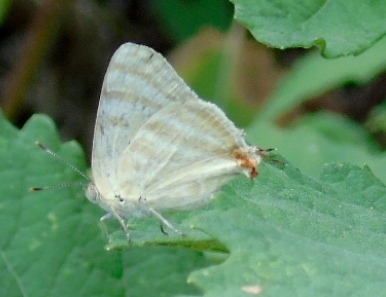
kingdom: Animalia
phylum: Arthropoda
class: Insecta
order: Lepidoptera
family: Lycaenidae
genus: Dolymorpha
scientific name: Dolymorpha jada
